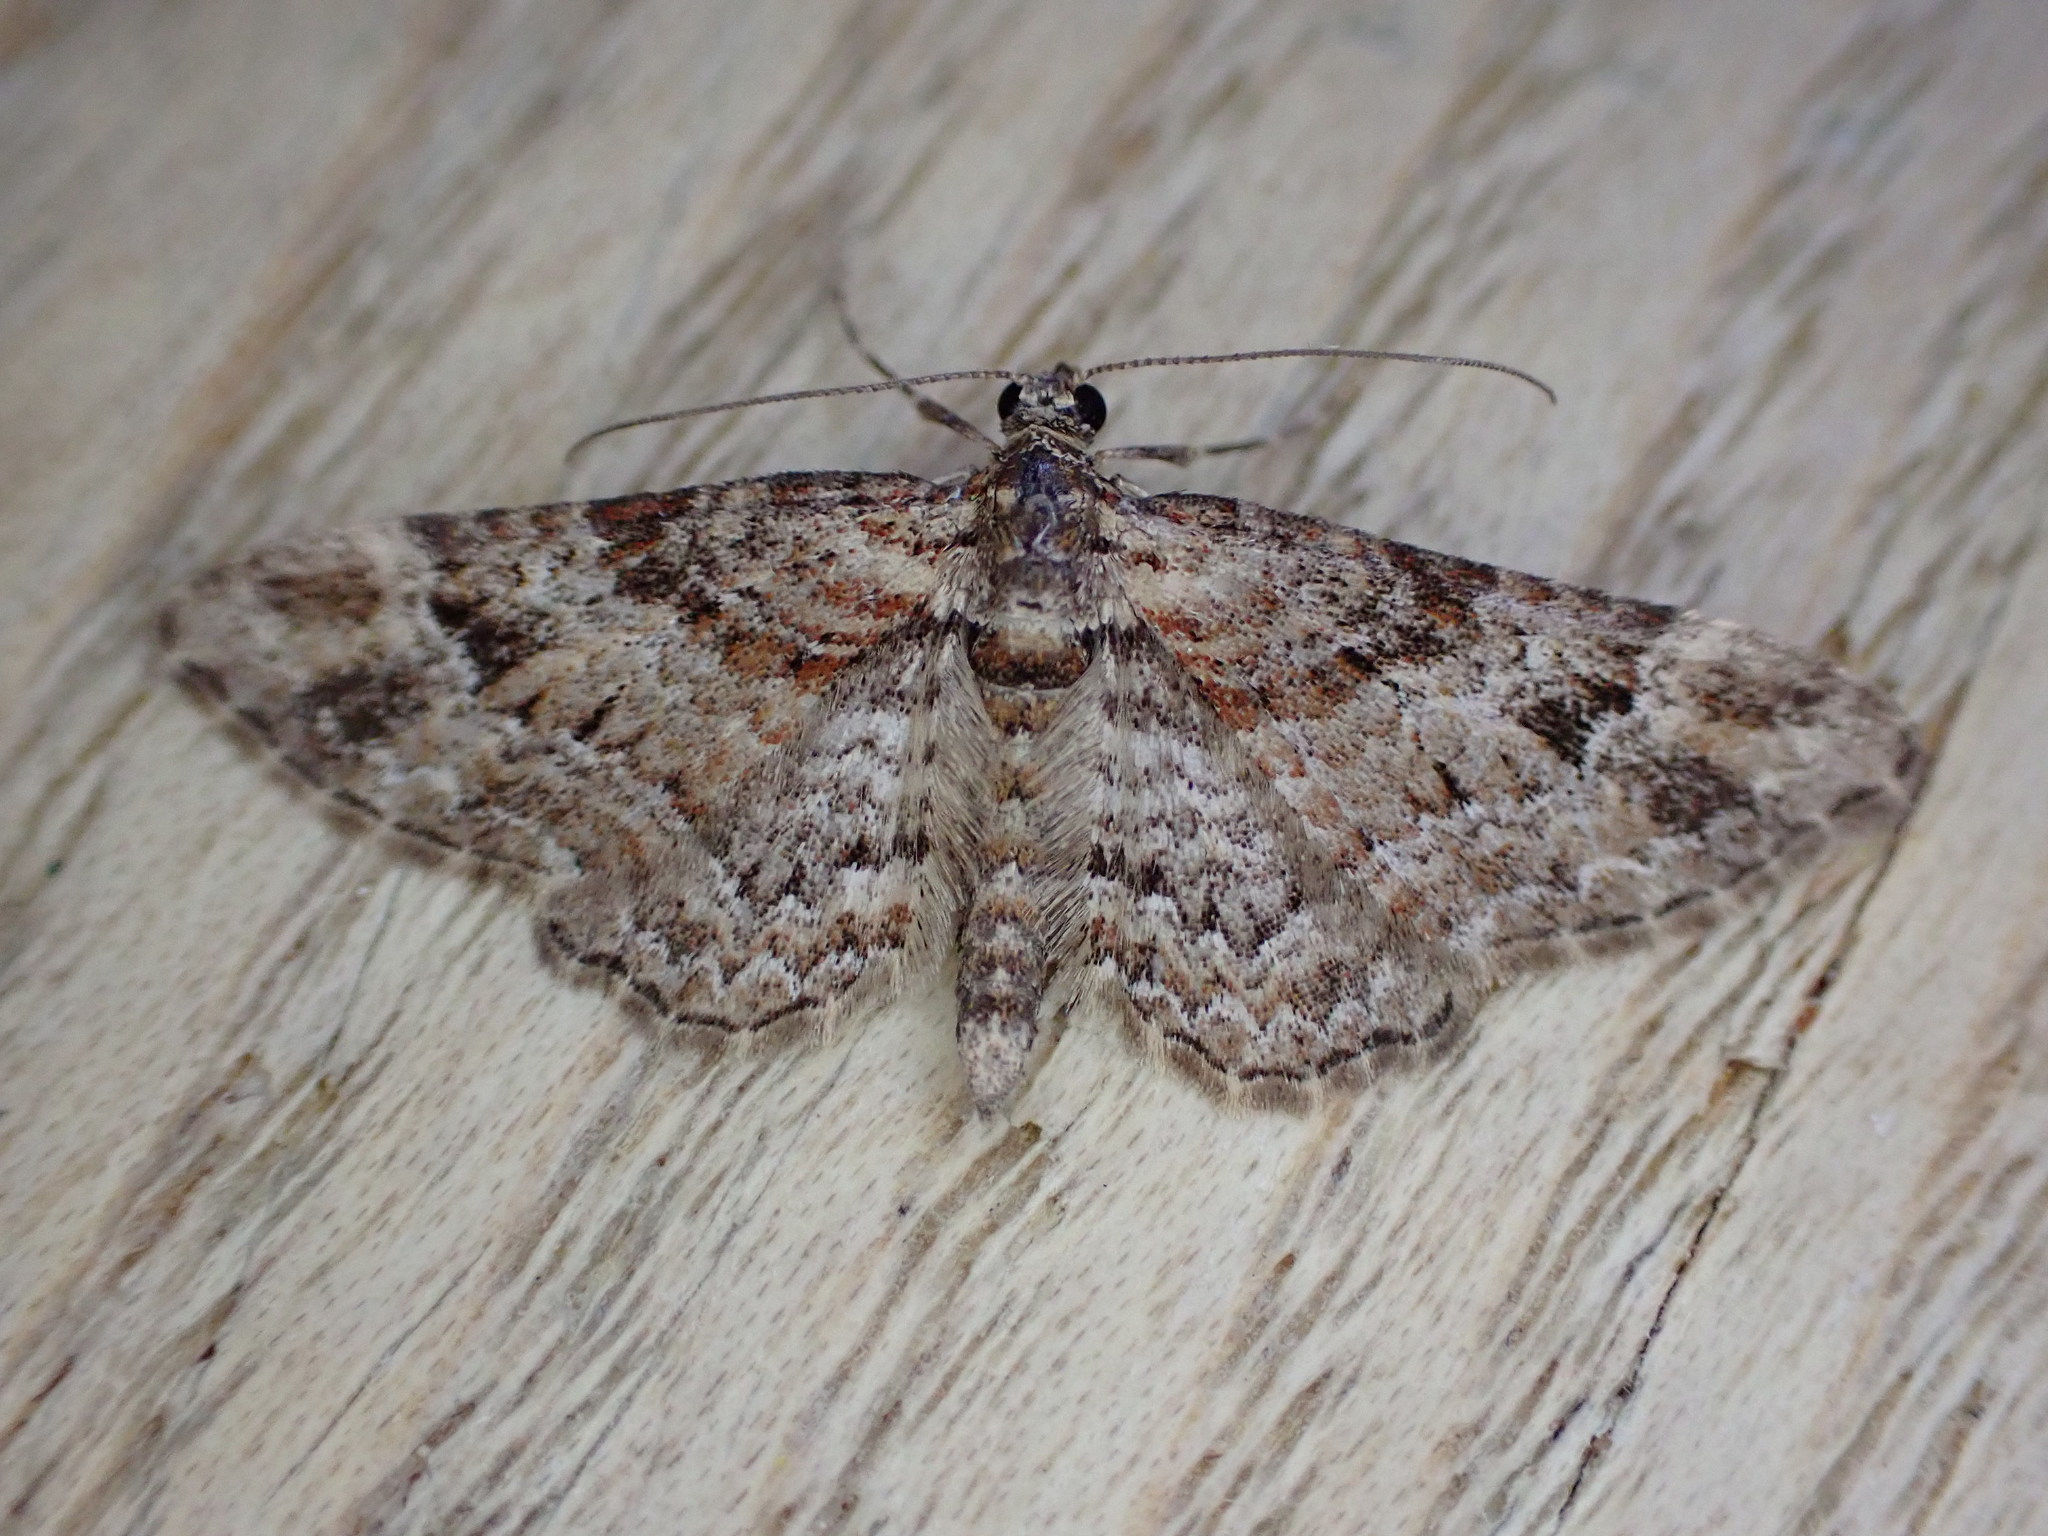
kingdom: Animalia
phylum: Arthropoda
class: Insecta
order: Lepidoptera
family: Geometridae
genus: Gymnoscelis
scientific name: Gymnoscelis rufifasciata
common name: Double-striped pug
